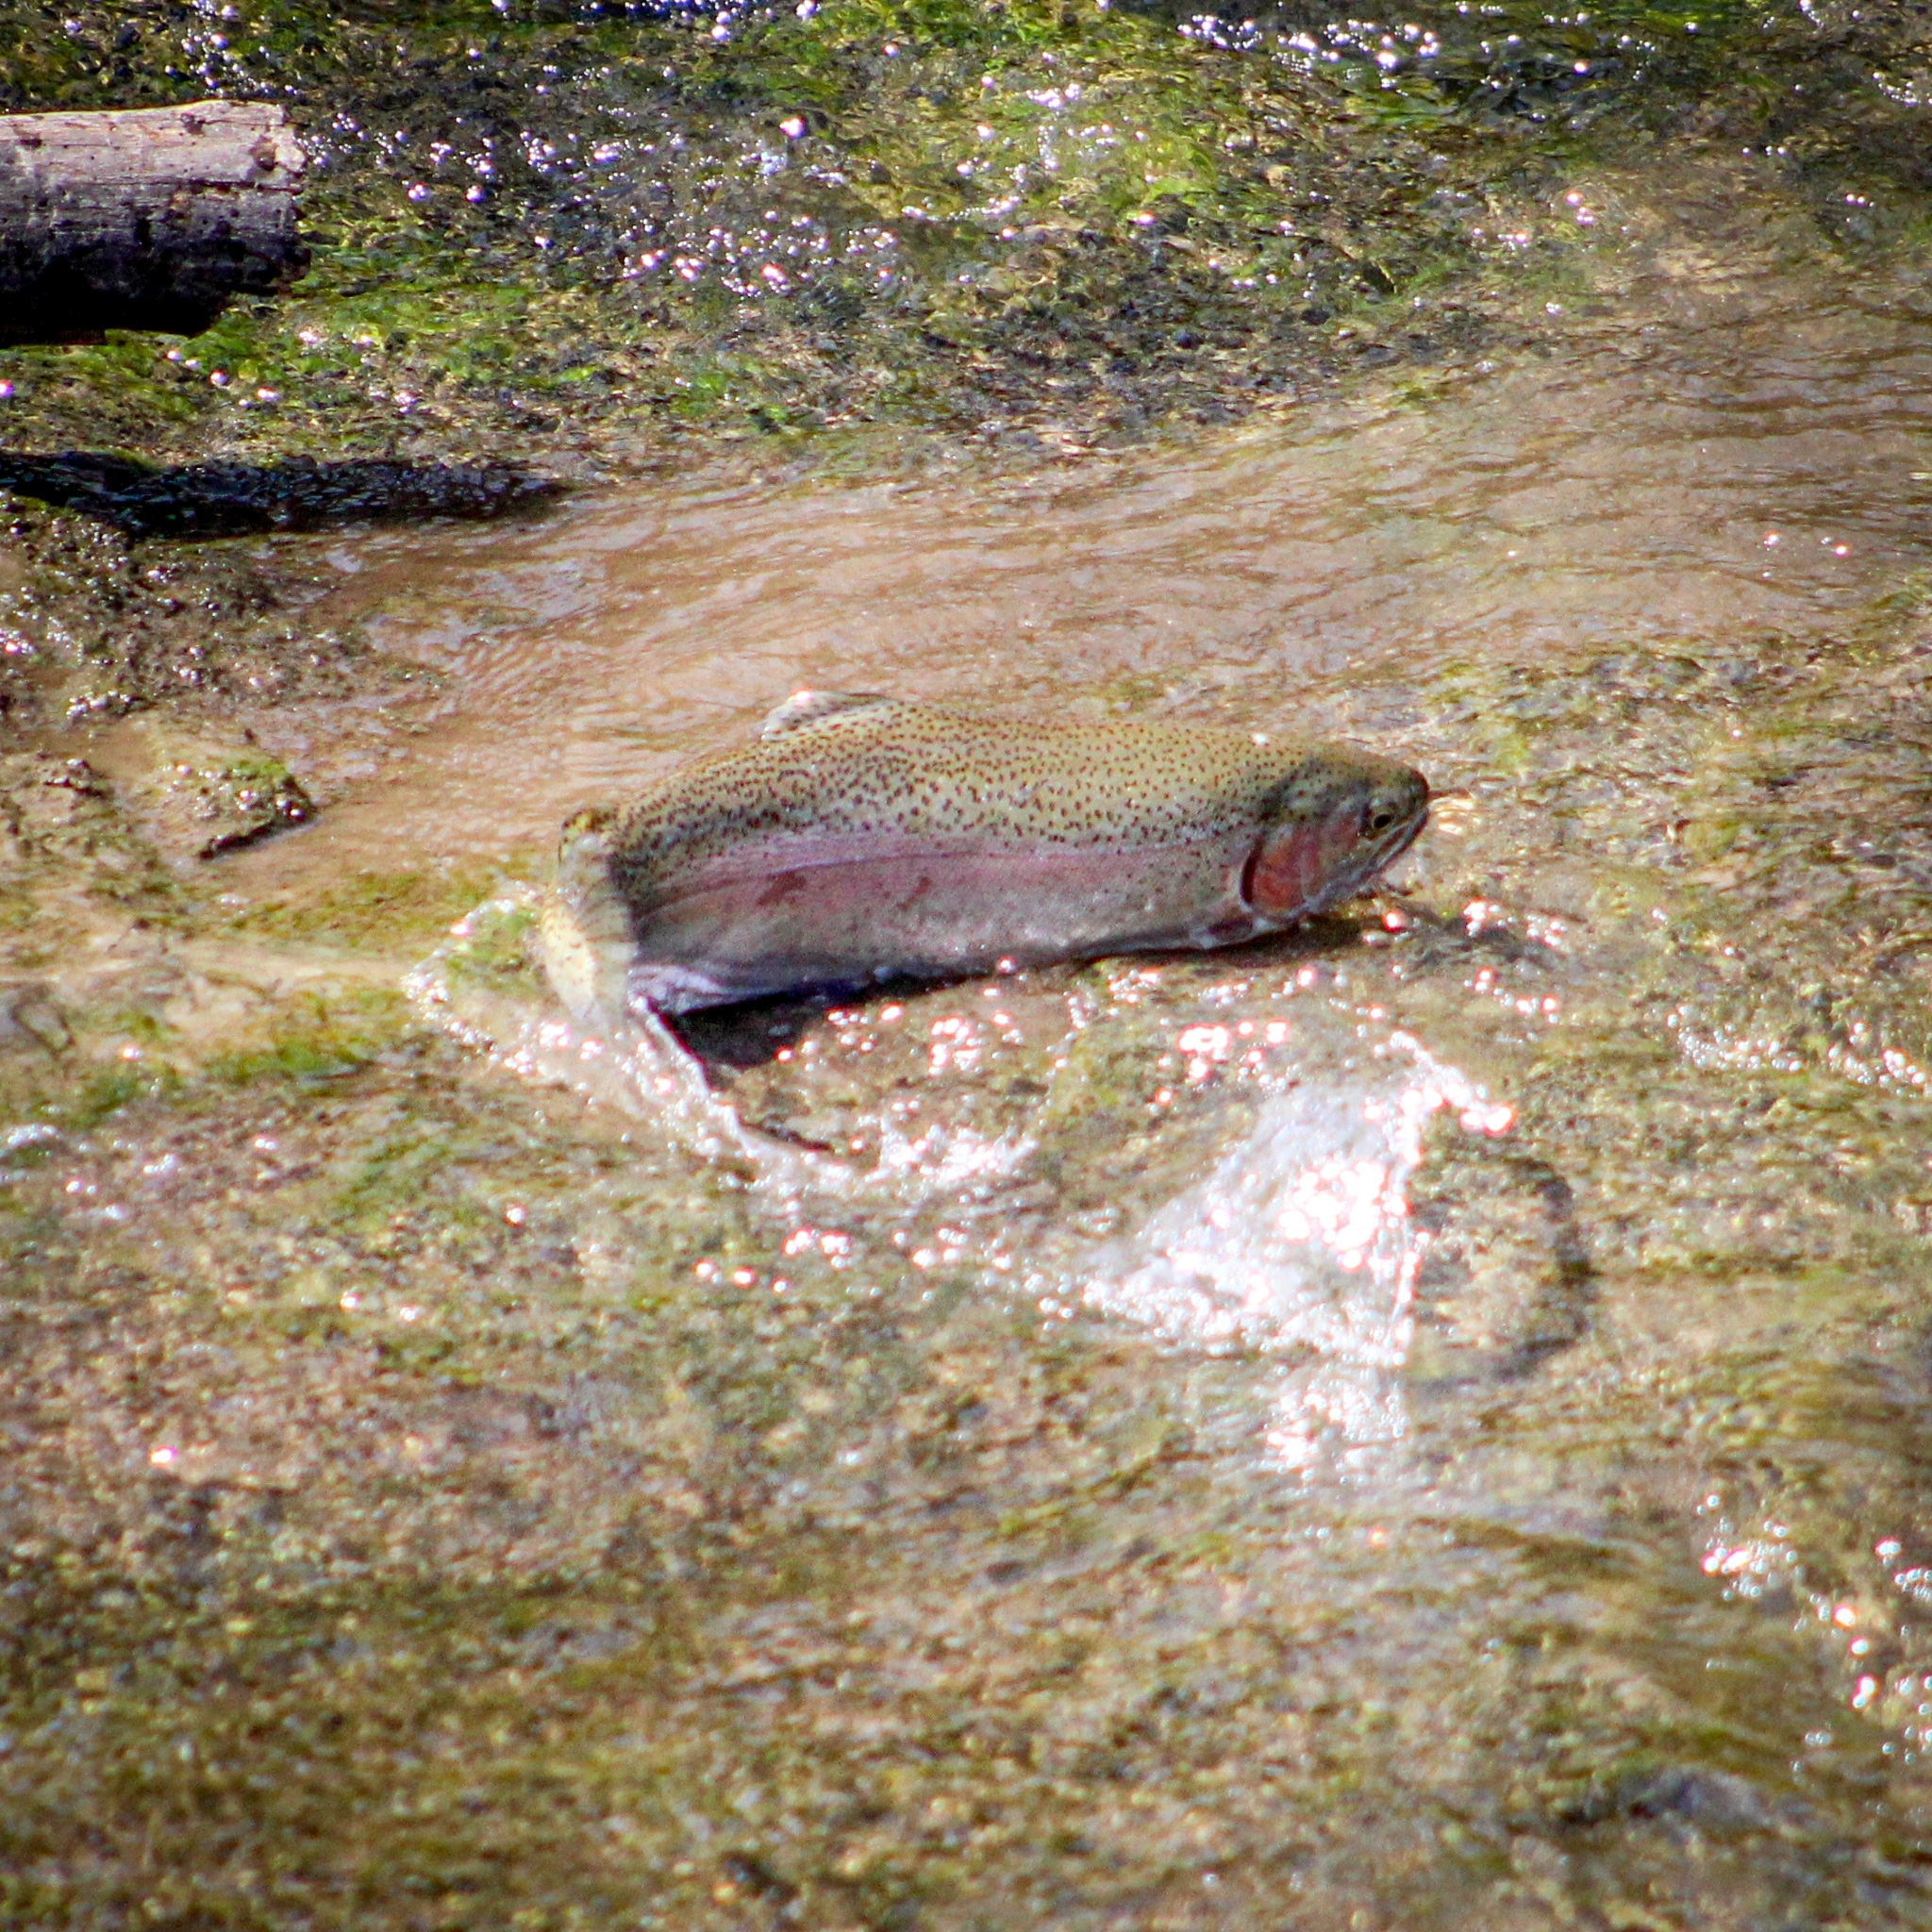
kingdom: Animalia
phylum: Chordata
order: Salmoniformes
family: Salmonidae
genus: Oncorhynchus
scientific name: Oncorhynchus mykiss
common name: Rainbow trout
